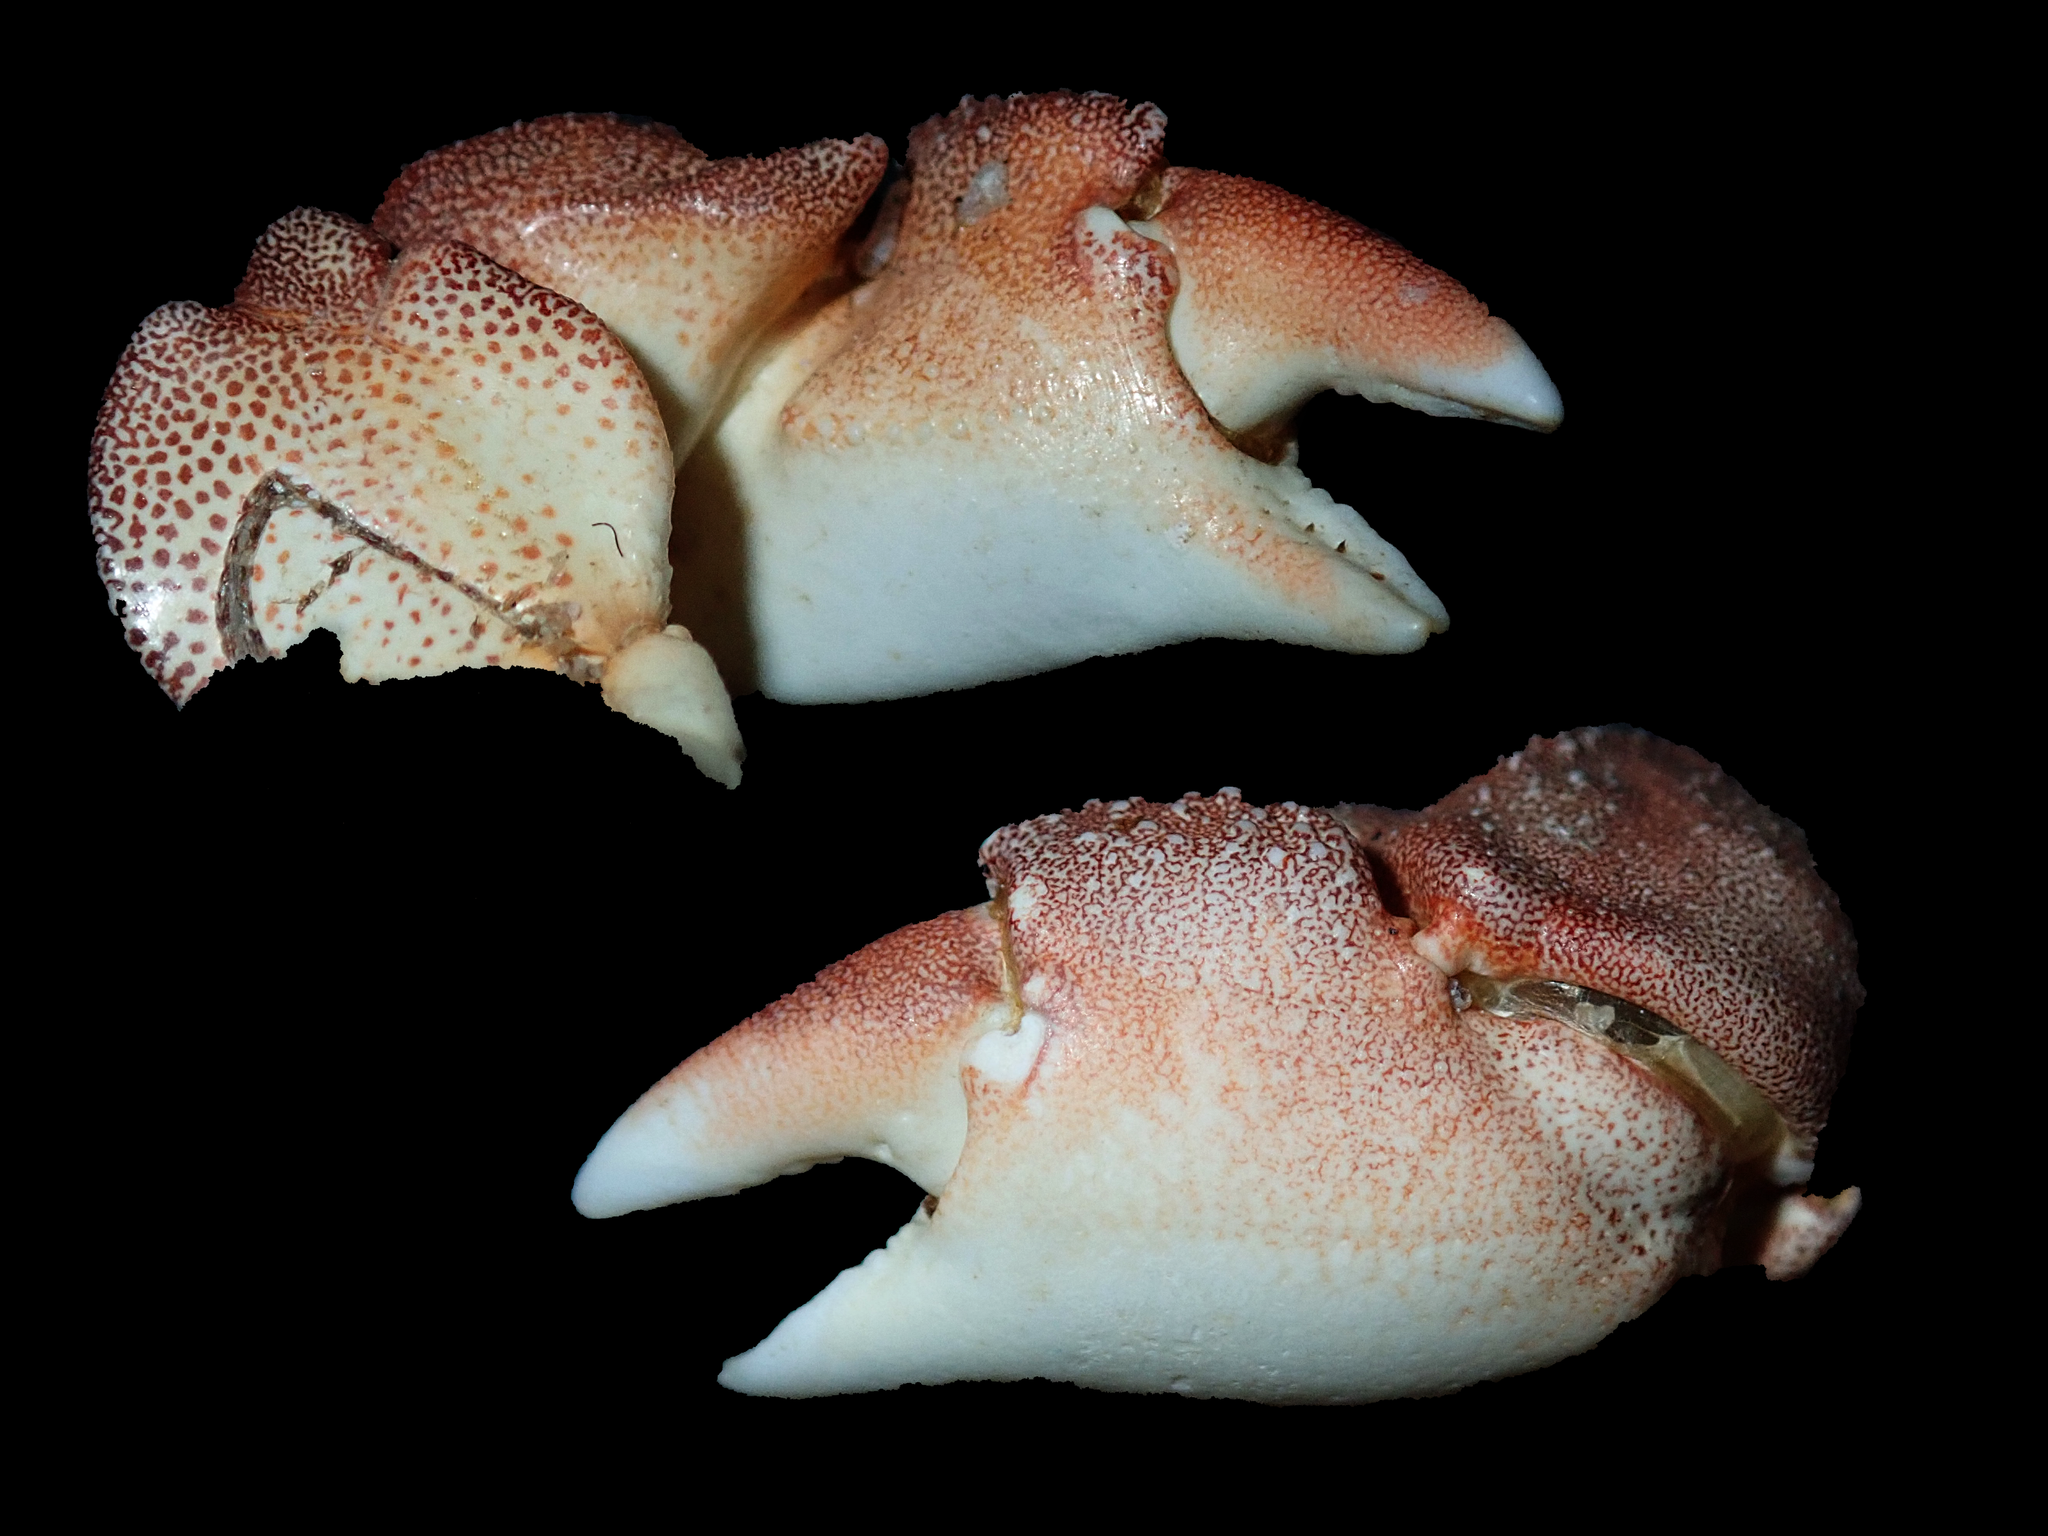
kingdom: Animalia
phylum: Arthropoda
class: Malacostraca
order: Decapoda
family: Plagusiidae
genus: Davusia
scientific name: Davusia glabra
